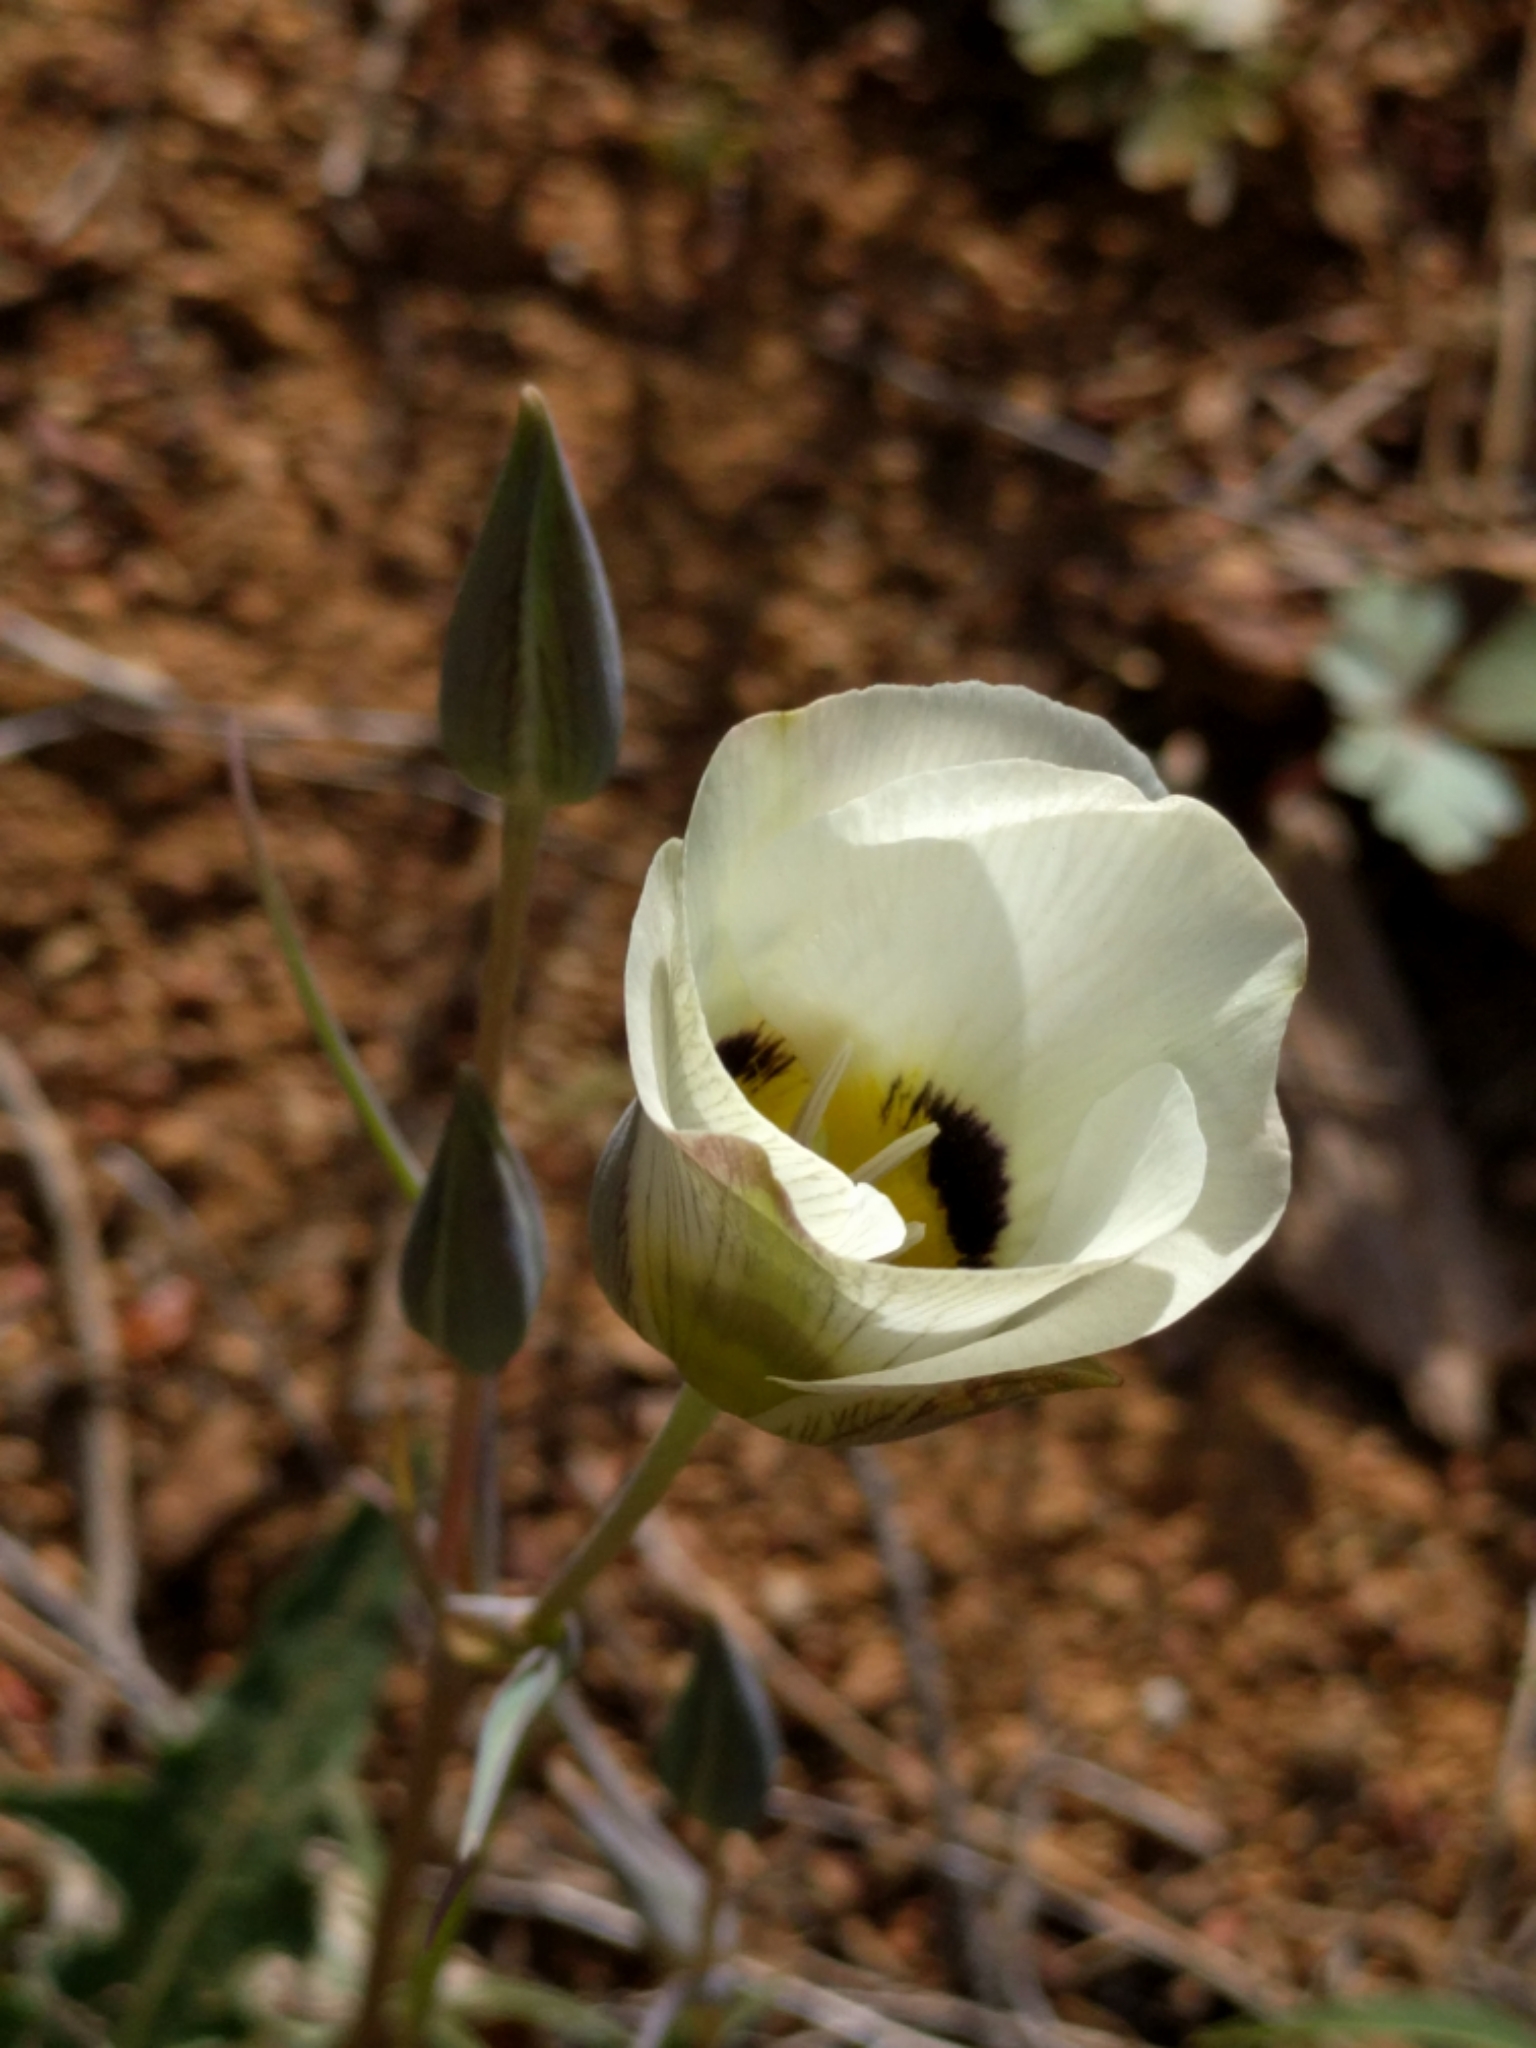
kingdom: Plantae
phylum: Tracheophyta
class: Liliopsida
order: Liliales
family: Liliaceae
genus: Calochortus
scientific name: Calochortus leichtlinii
